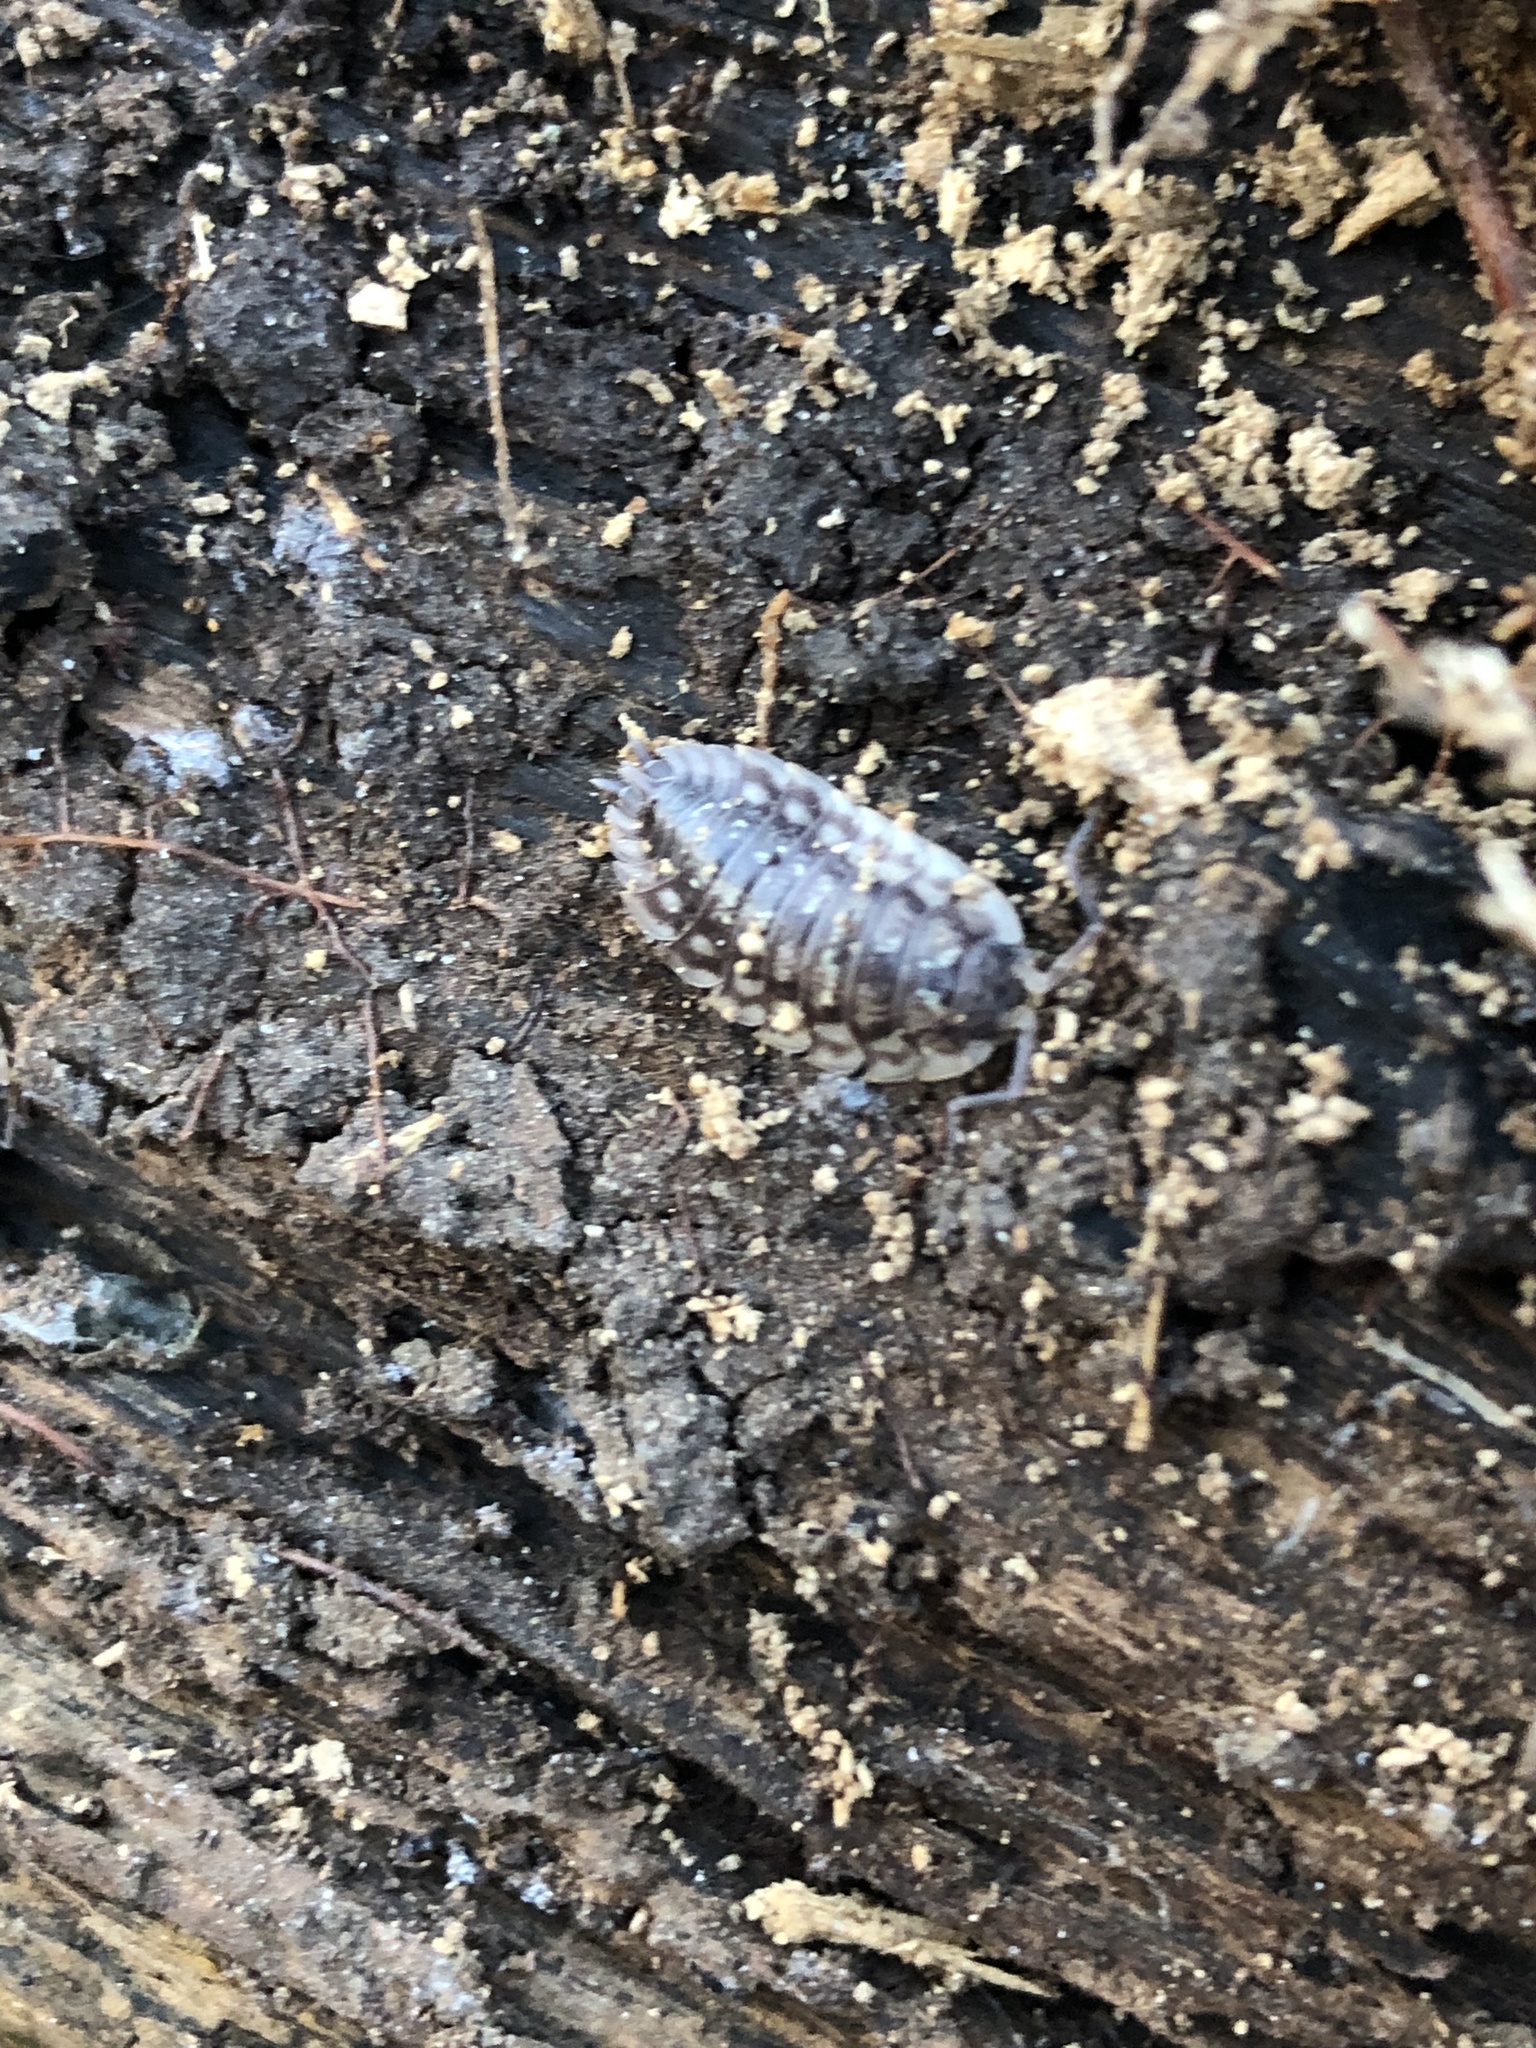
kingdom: Animalia
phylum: Arthropoda
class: Malacostraca
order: Isopoda
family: Oniscidae
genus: Oniscus
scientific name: Oniscus asellus
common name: Common shiny woodlouse
